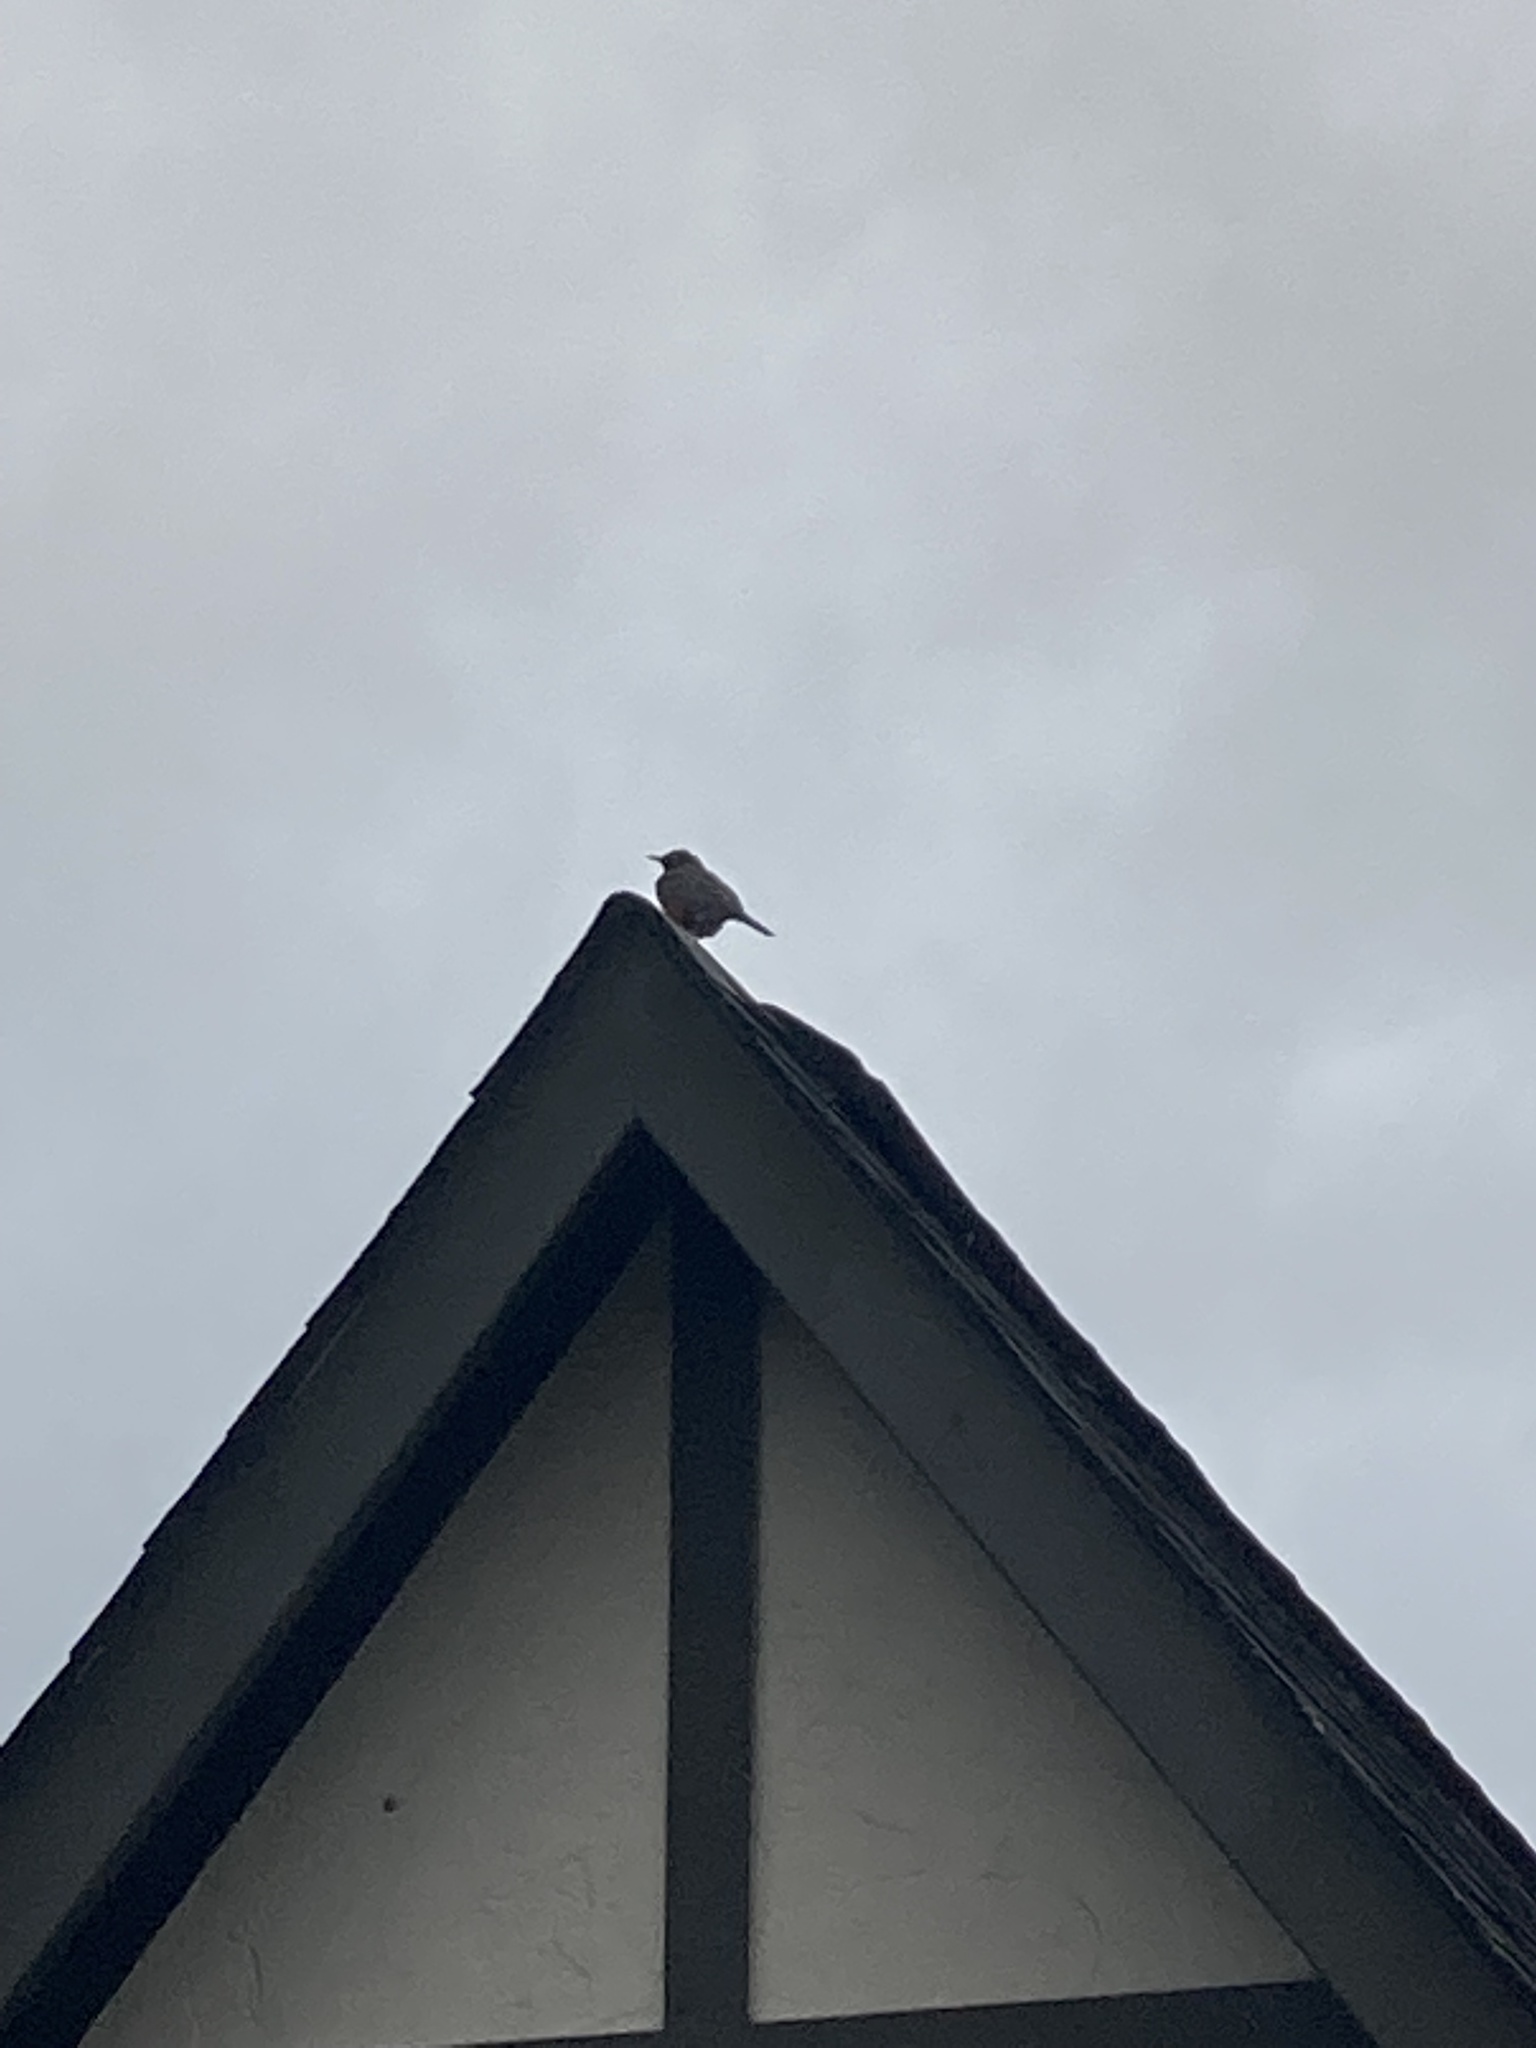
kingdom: Animalia
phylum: Chordata
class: Aves
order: Passeriformes
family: Turdidae
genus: Turdus
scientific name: Turdus migratorius
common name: American robin
